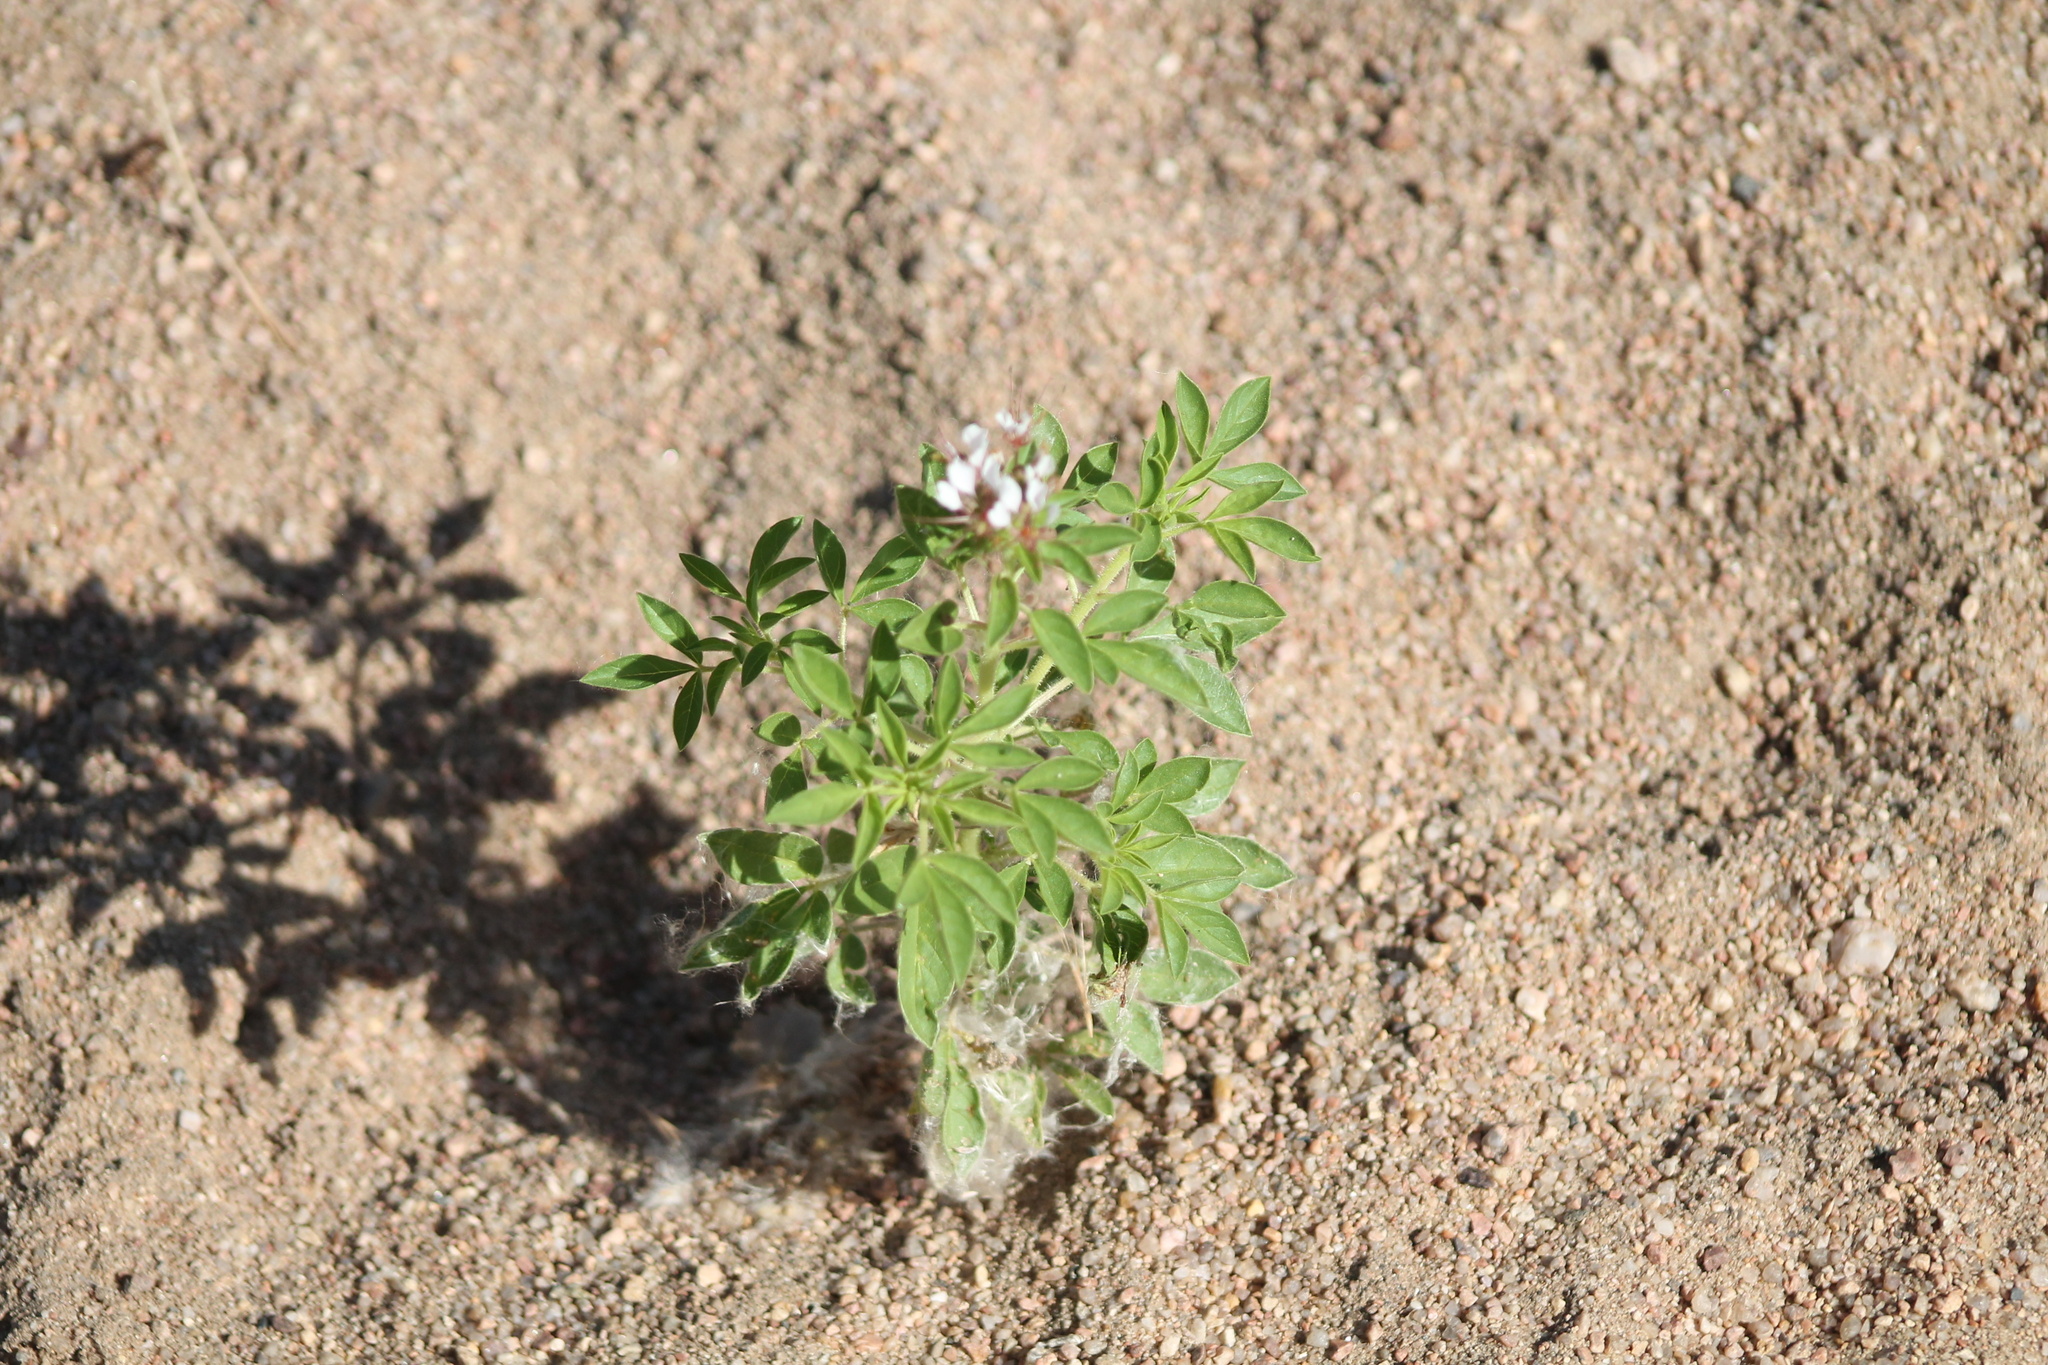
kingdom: Plantae
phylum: Tracheophyta
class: Magnoliopsida
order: Brassicales
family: Cleomaceae
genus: Polanisia
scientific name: Polanisia dodecandra
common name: Clammyweed
